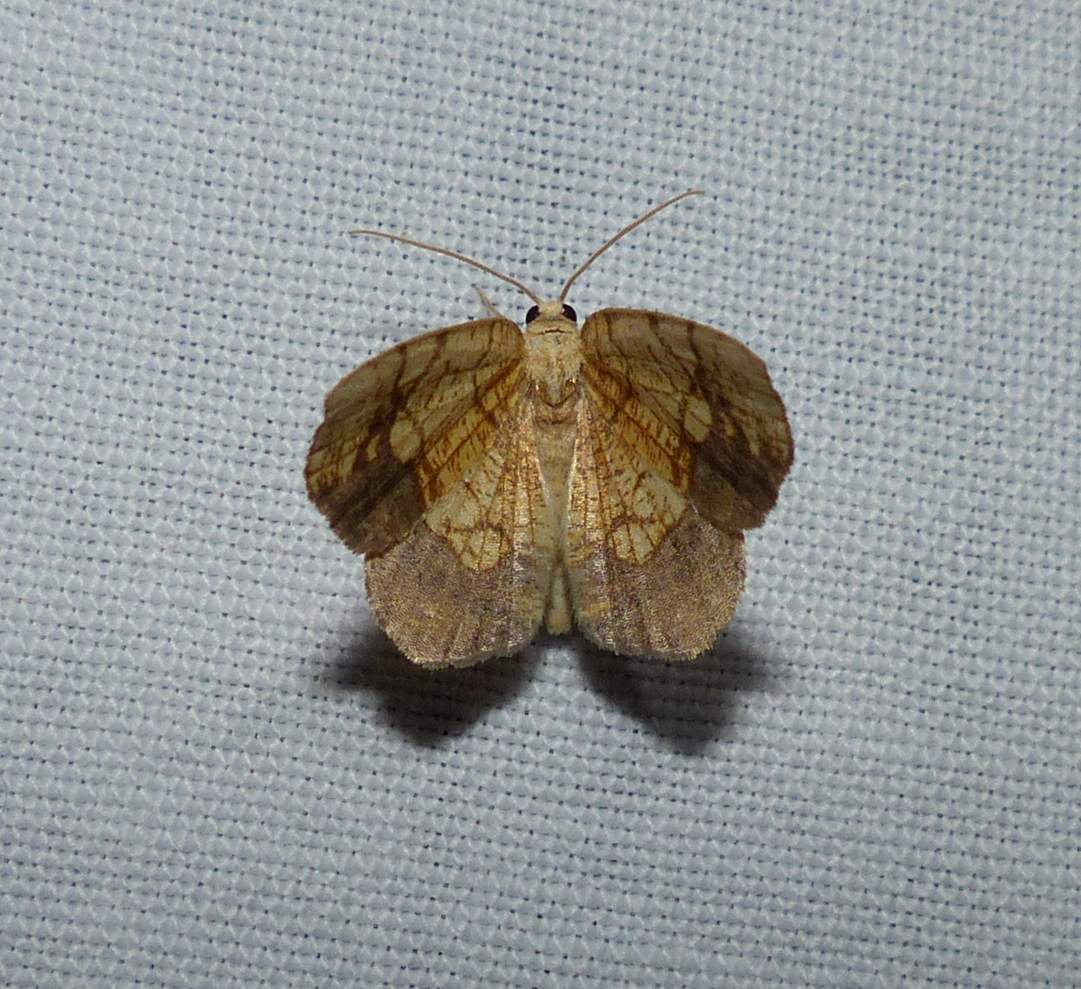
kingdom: Animalia
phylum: Arthropoda
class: Insecta
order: Lepidoptera
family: Geometridae
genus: Nematocampa
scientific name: Nematocampa resistaria
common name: Horned spanworm moth
